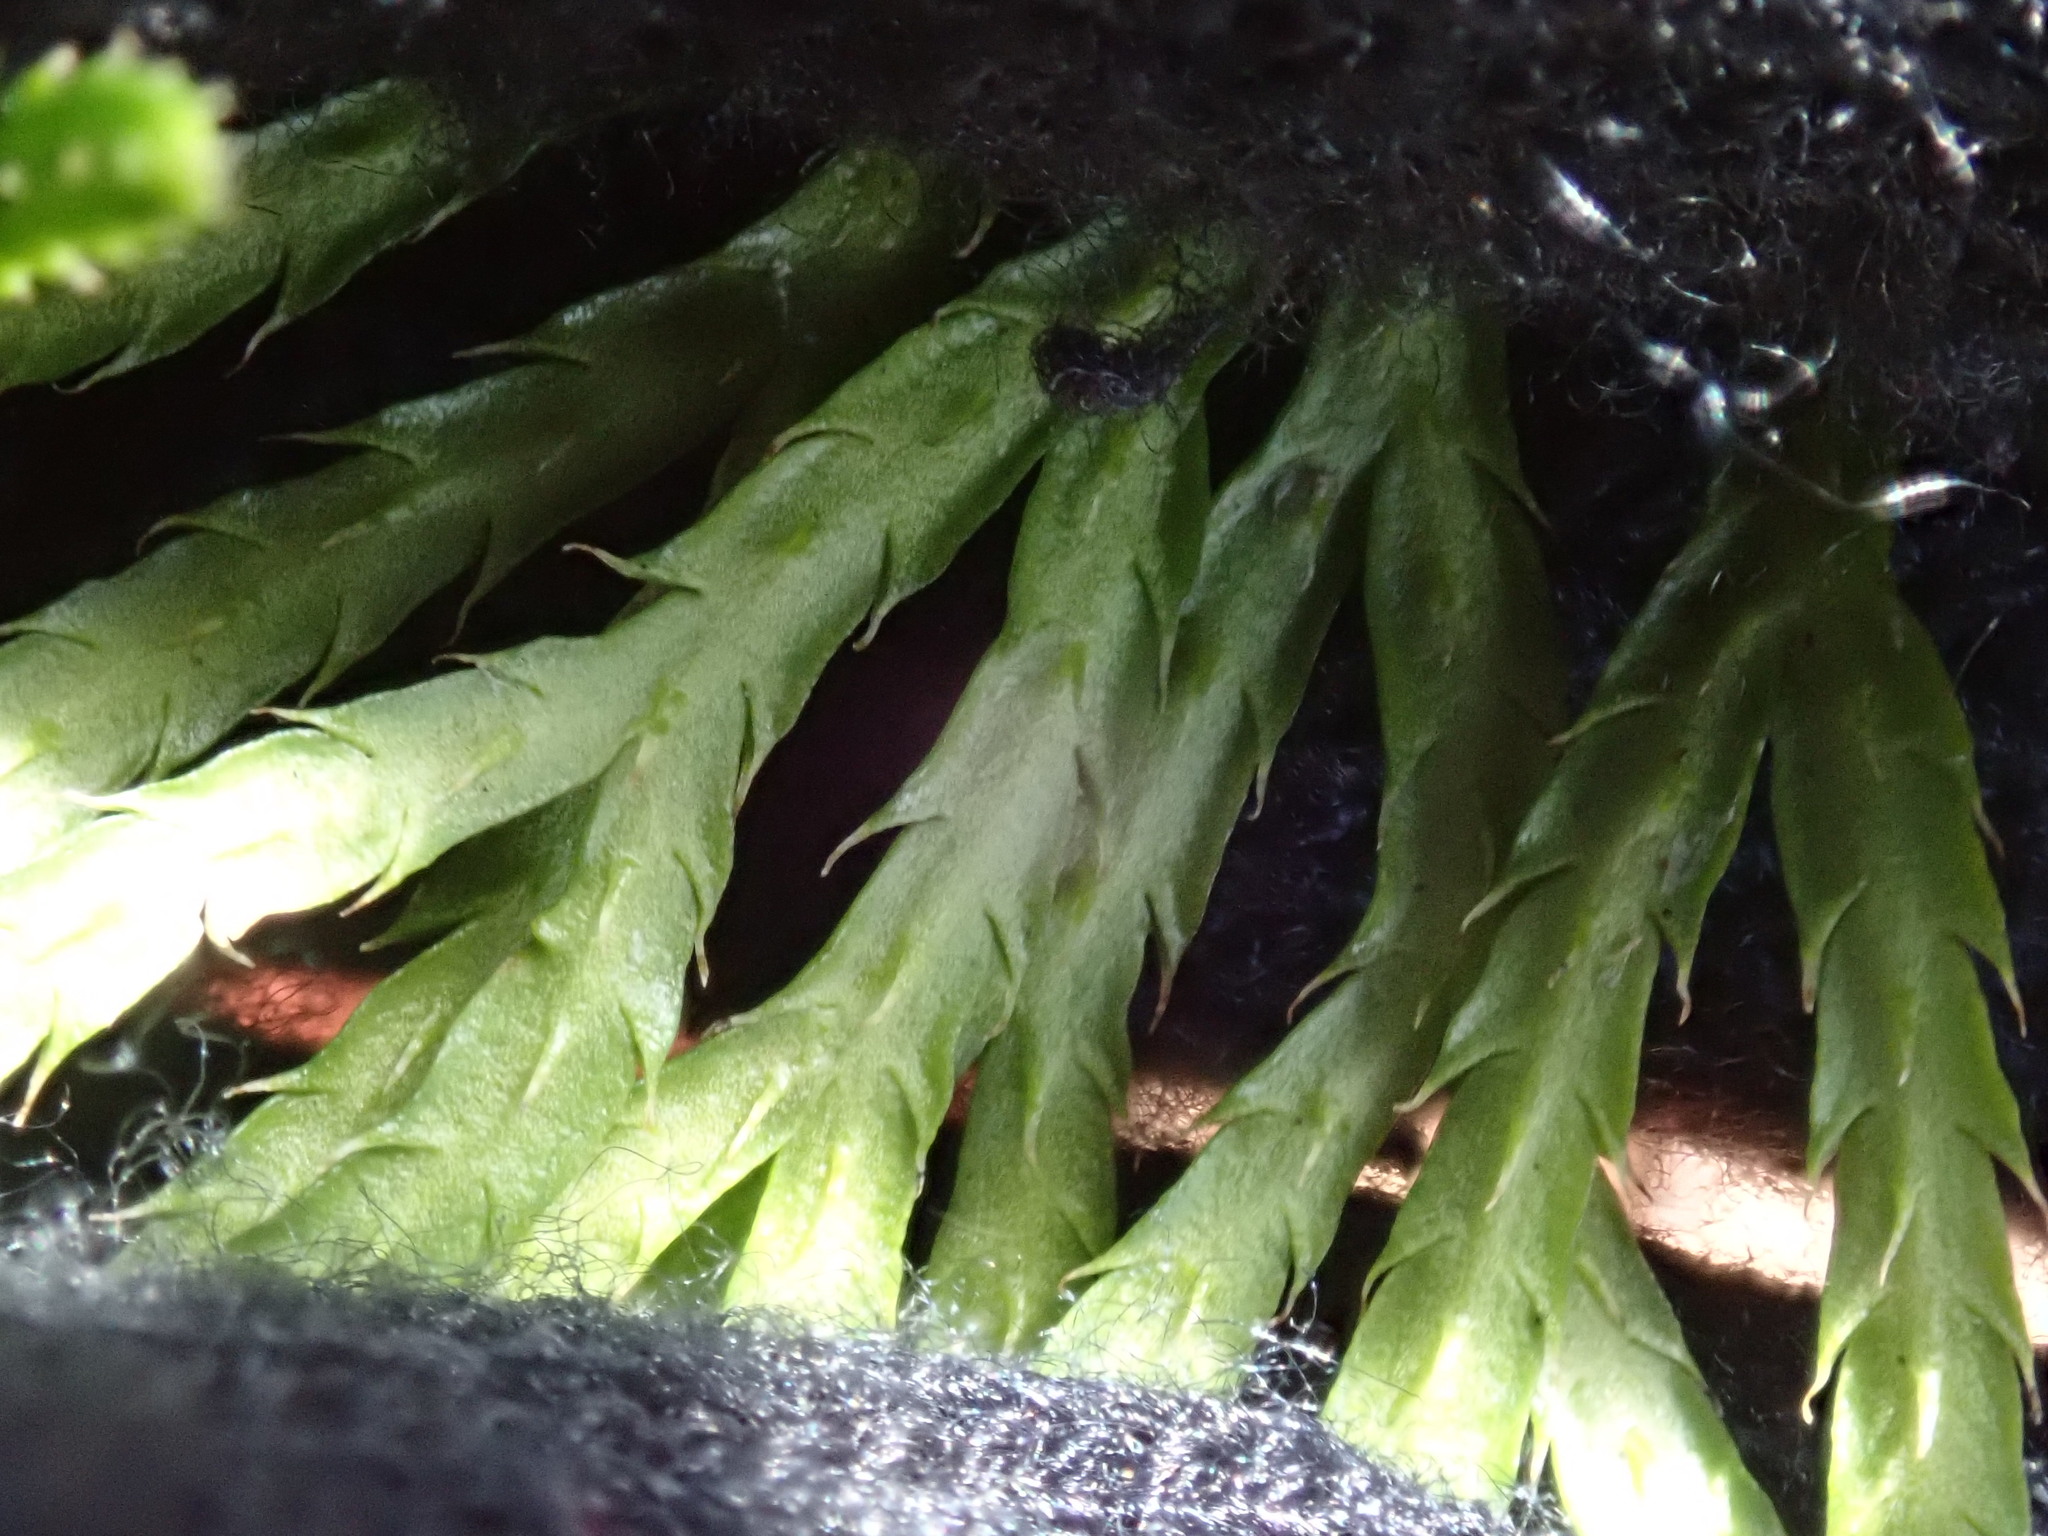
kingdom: Plantae
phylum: Tracheophyta
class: Lycopodiopsida
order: Lycopodiales
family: Lycopodiaceae
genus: Diphasiastrum
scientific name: Diphasiastrum digitatum
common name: Southern running-pine
